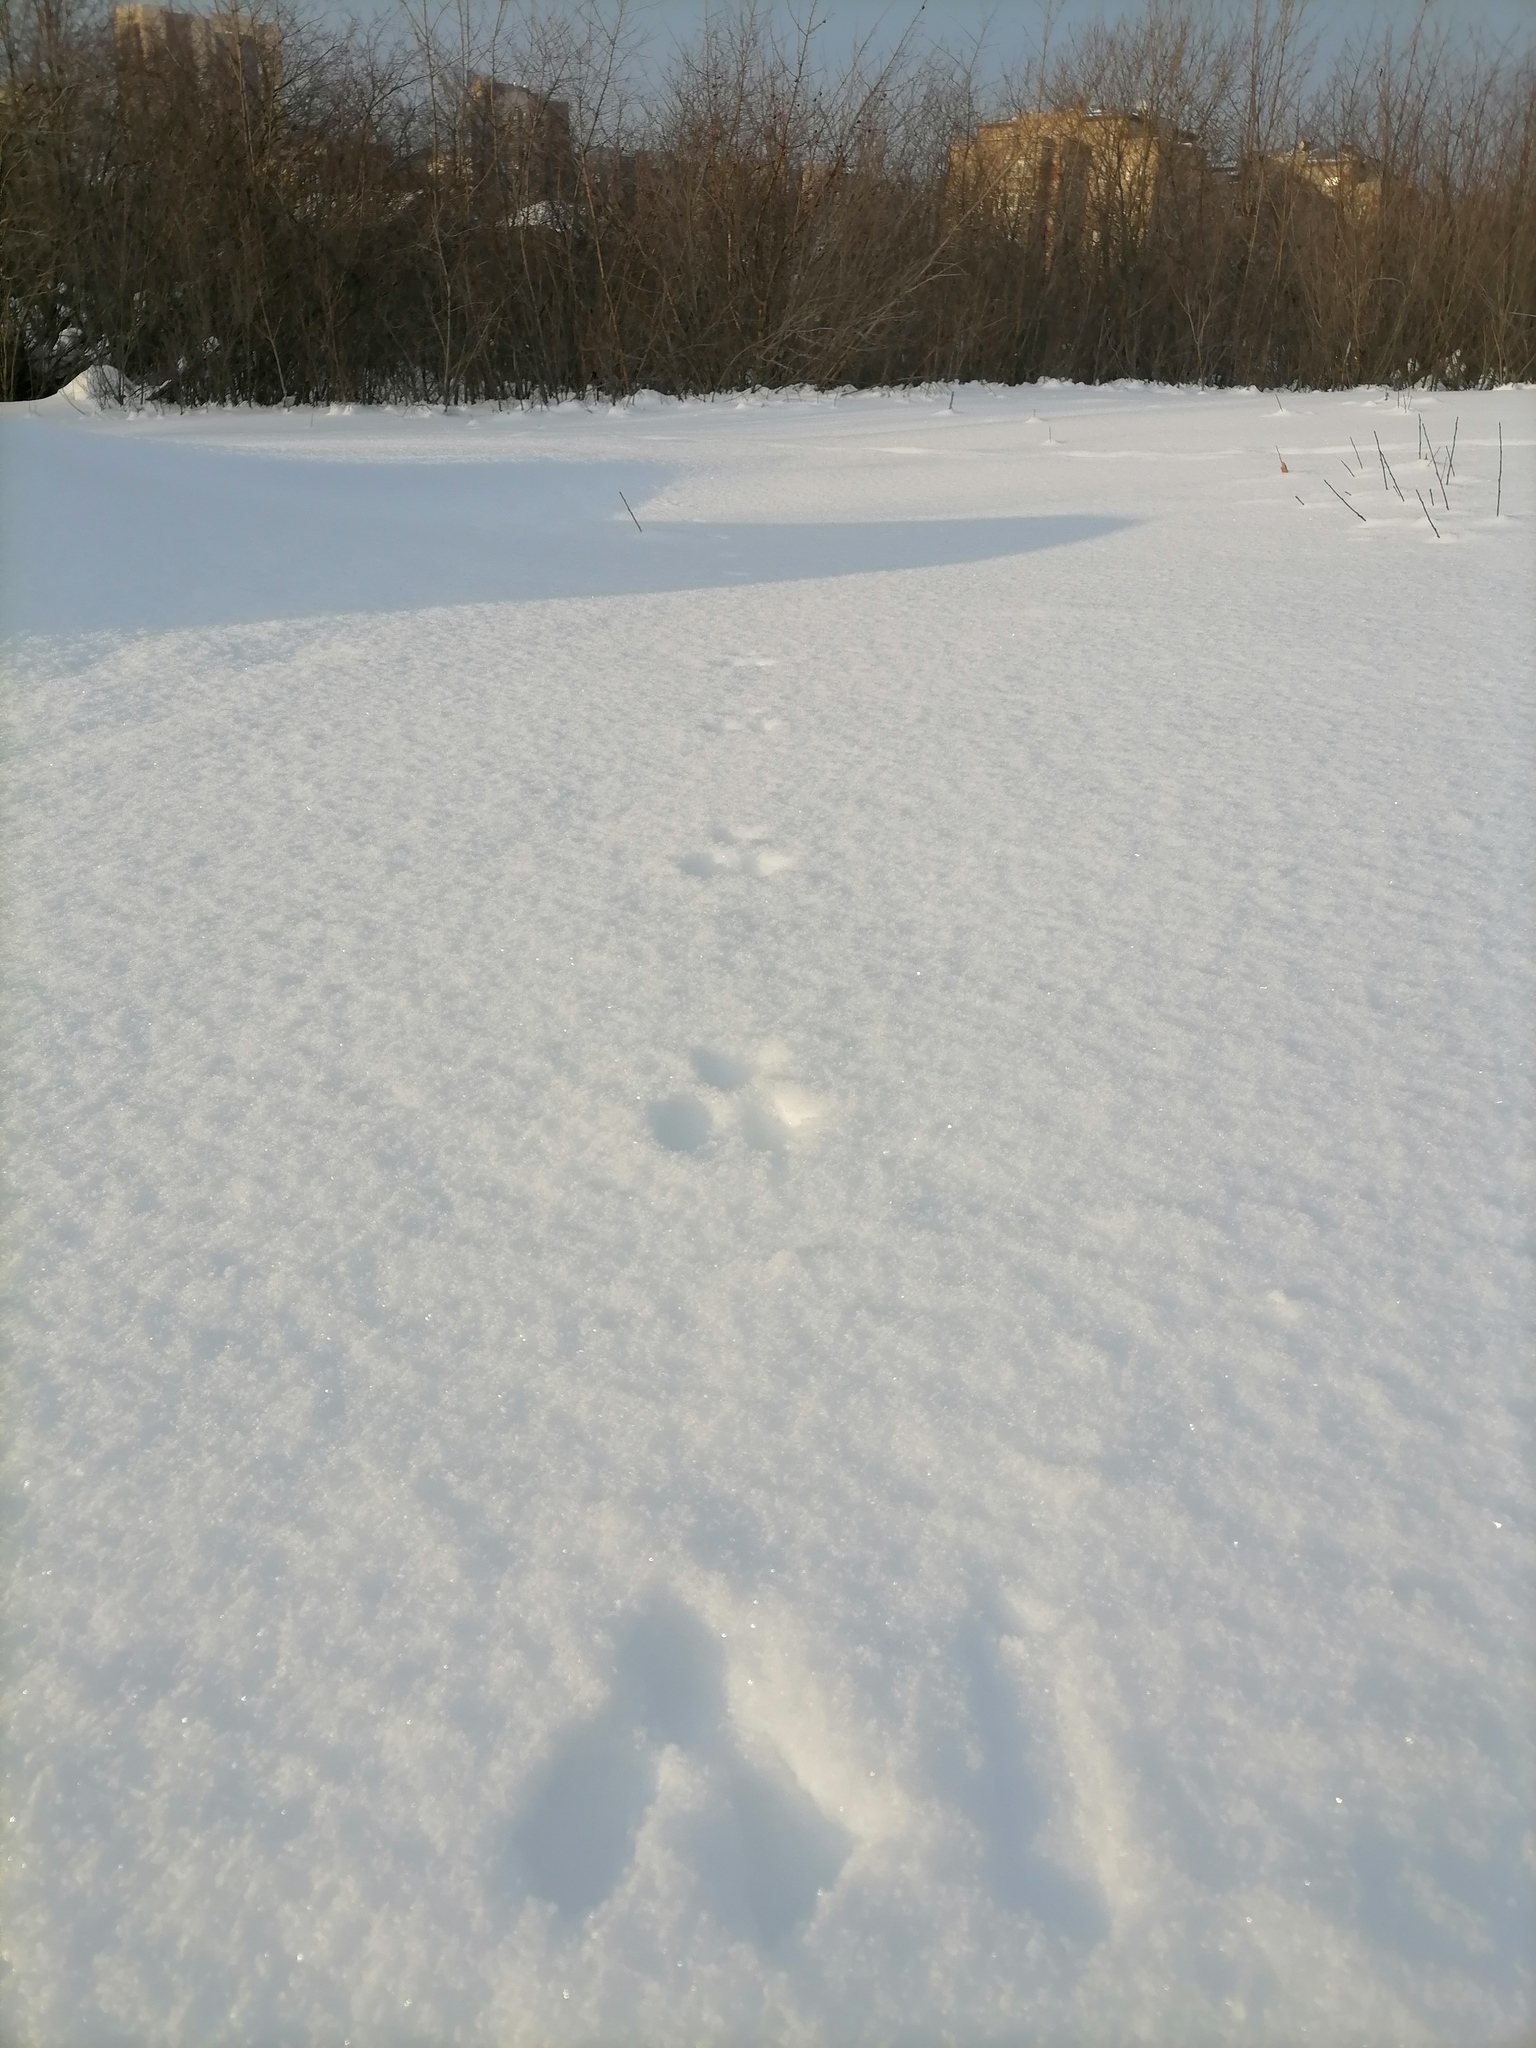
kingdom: Animalia
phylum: Chordata
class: Mammalia
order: Rodentia
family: Sciuridae
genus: Sciurus
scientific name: Sciurus vulgaris
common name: Eurasian red squirrel
